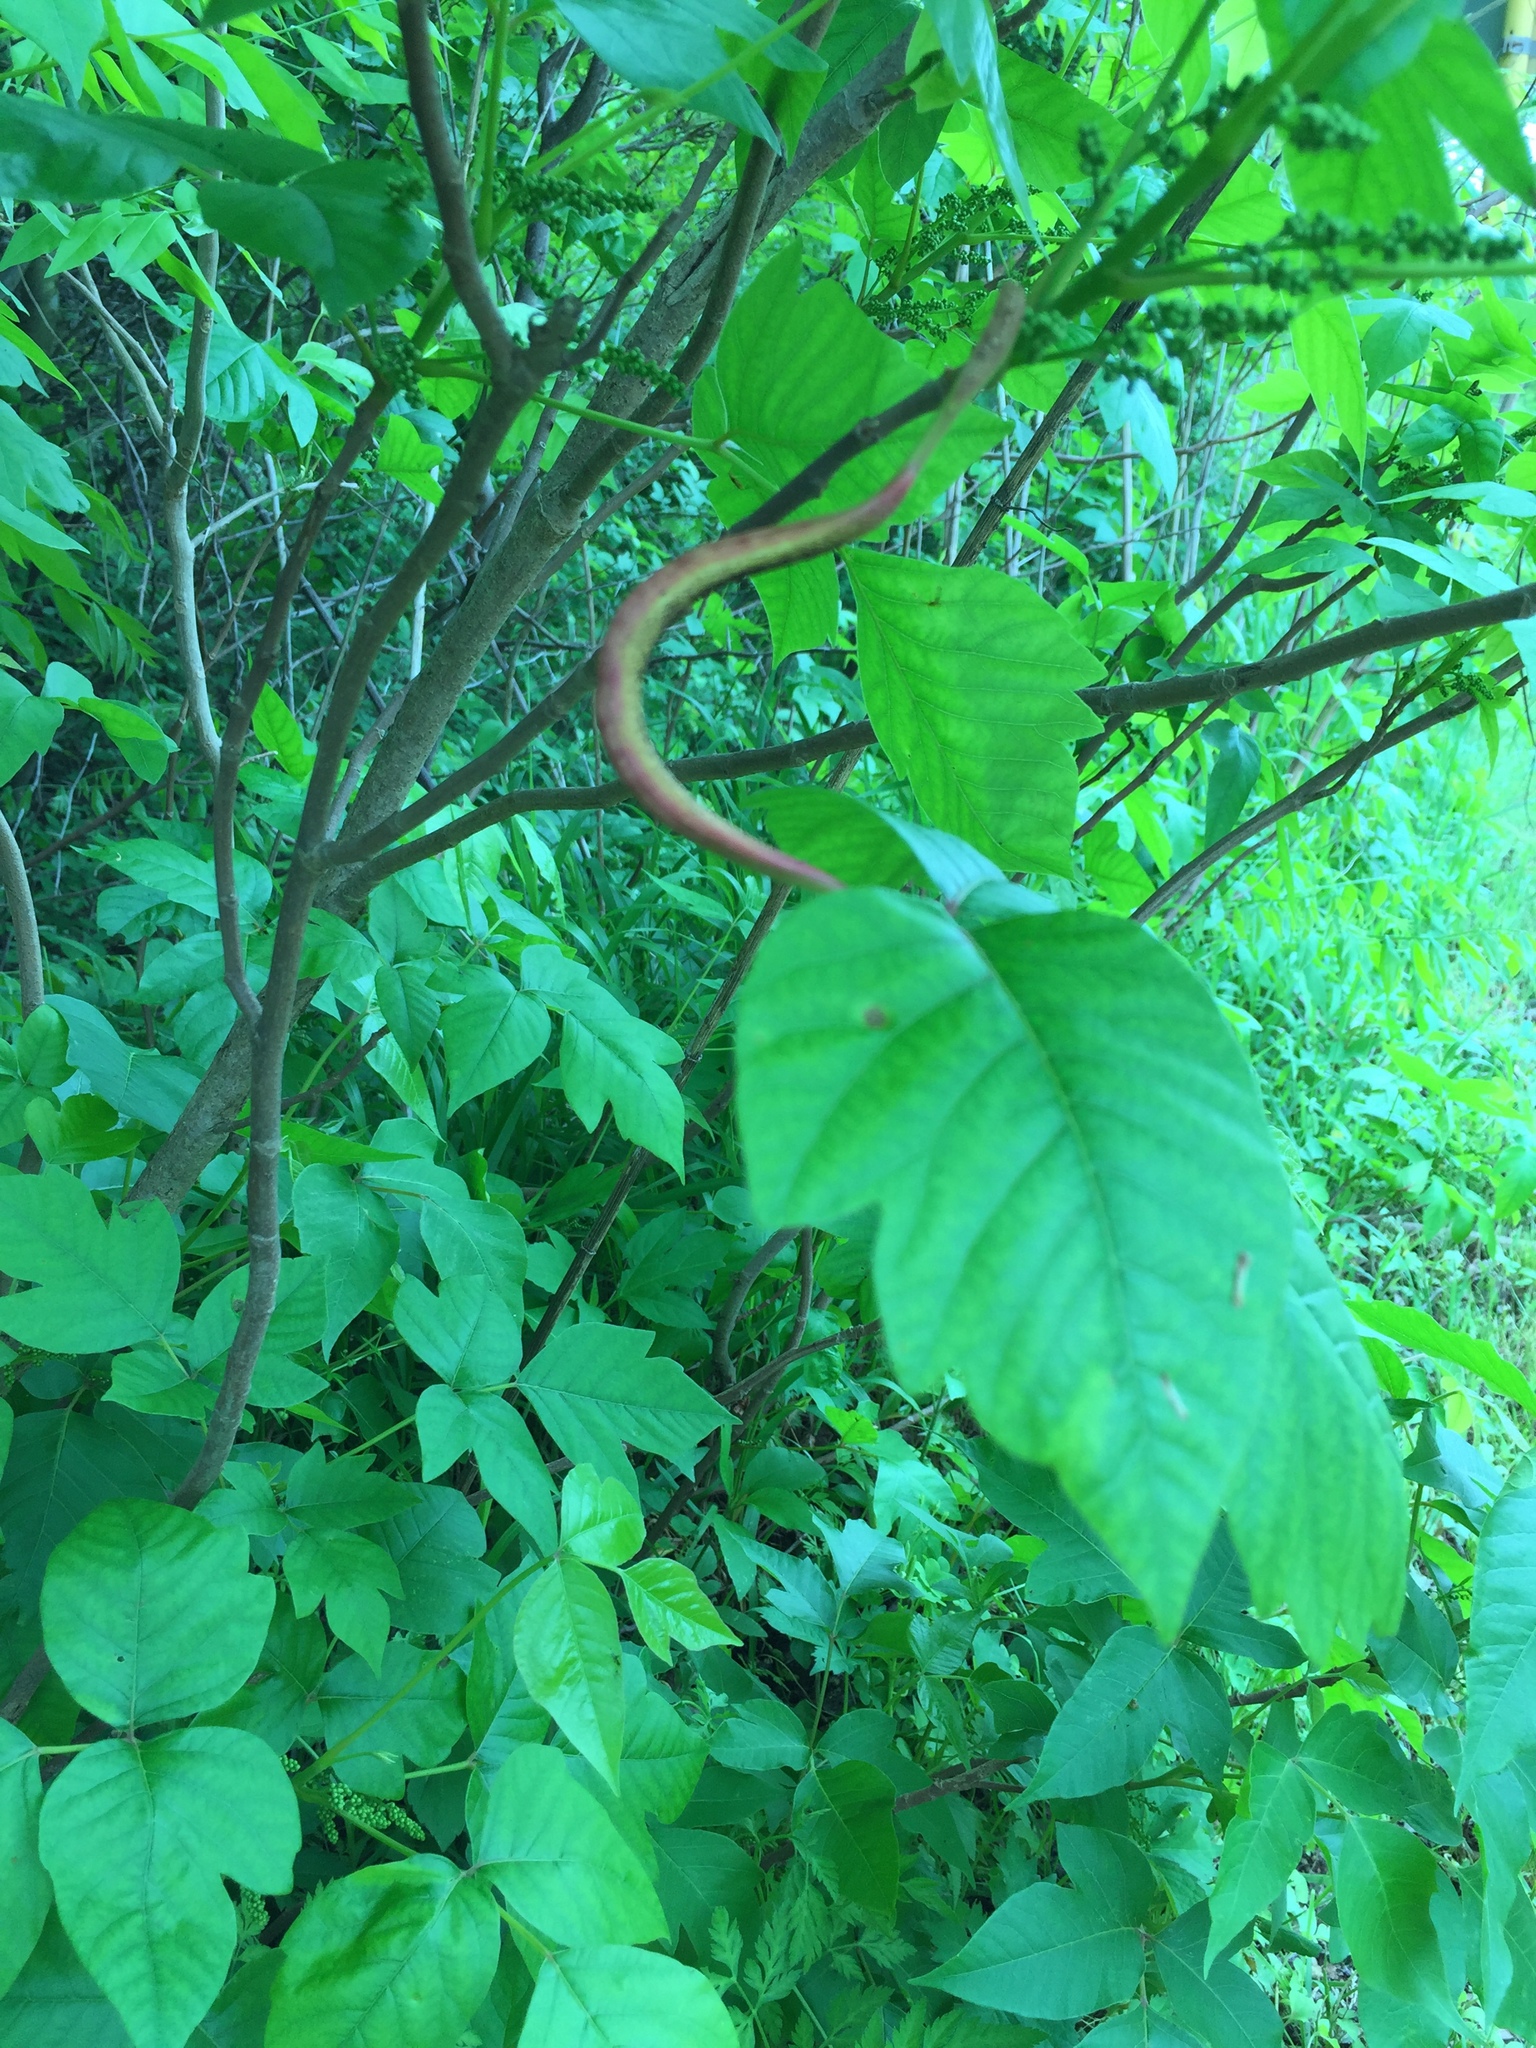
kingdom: Fungi
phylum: Basidiomycota
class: Pucciniomycetes
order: Pucciniales
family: Pileolariaceae
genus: Pileolaria
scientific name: Pileolaria brevipes
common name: Poison ivy rust
